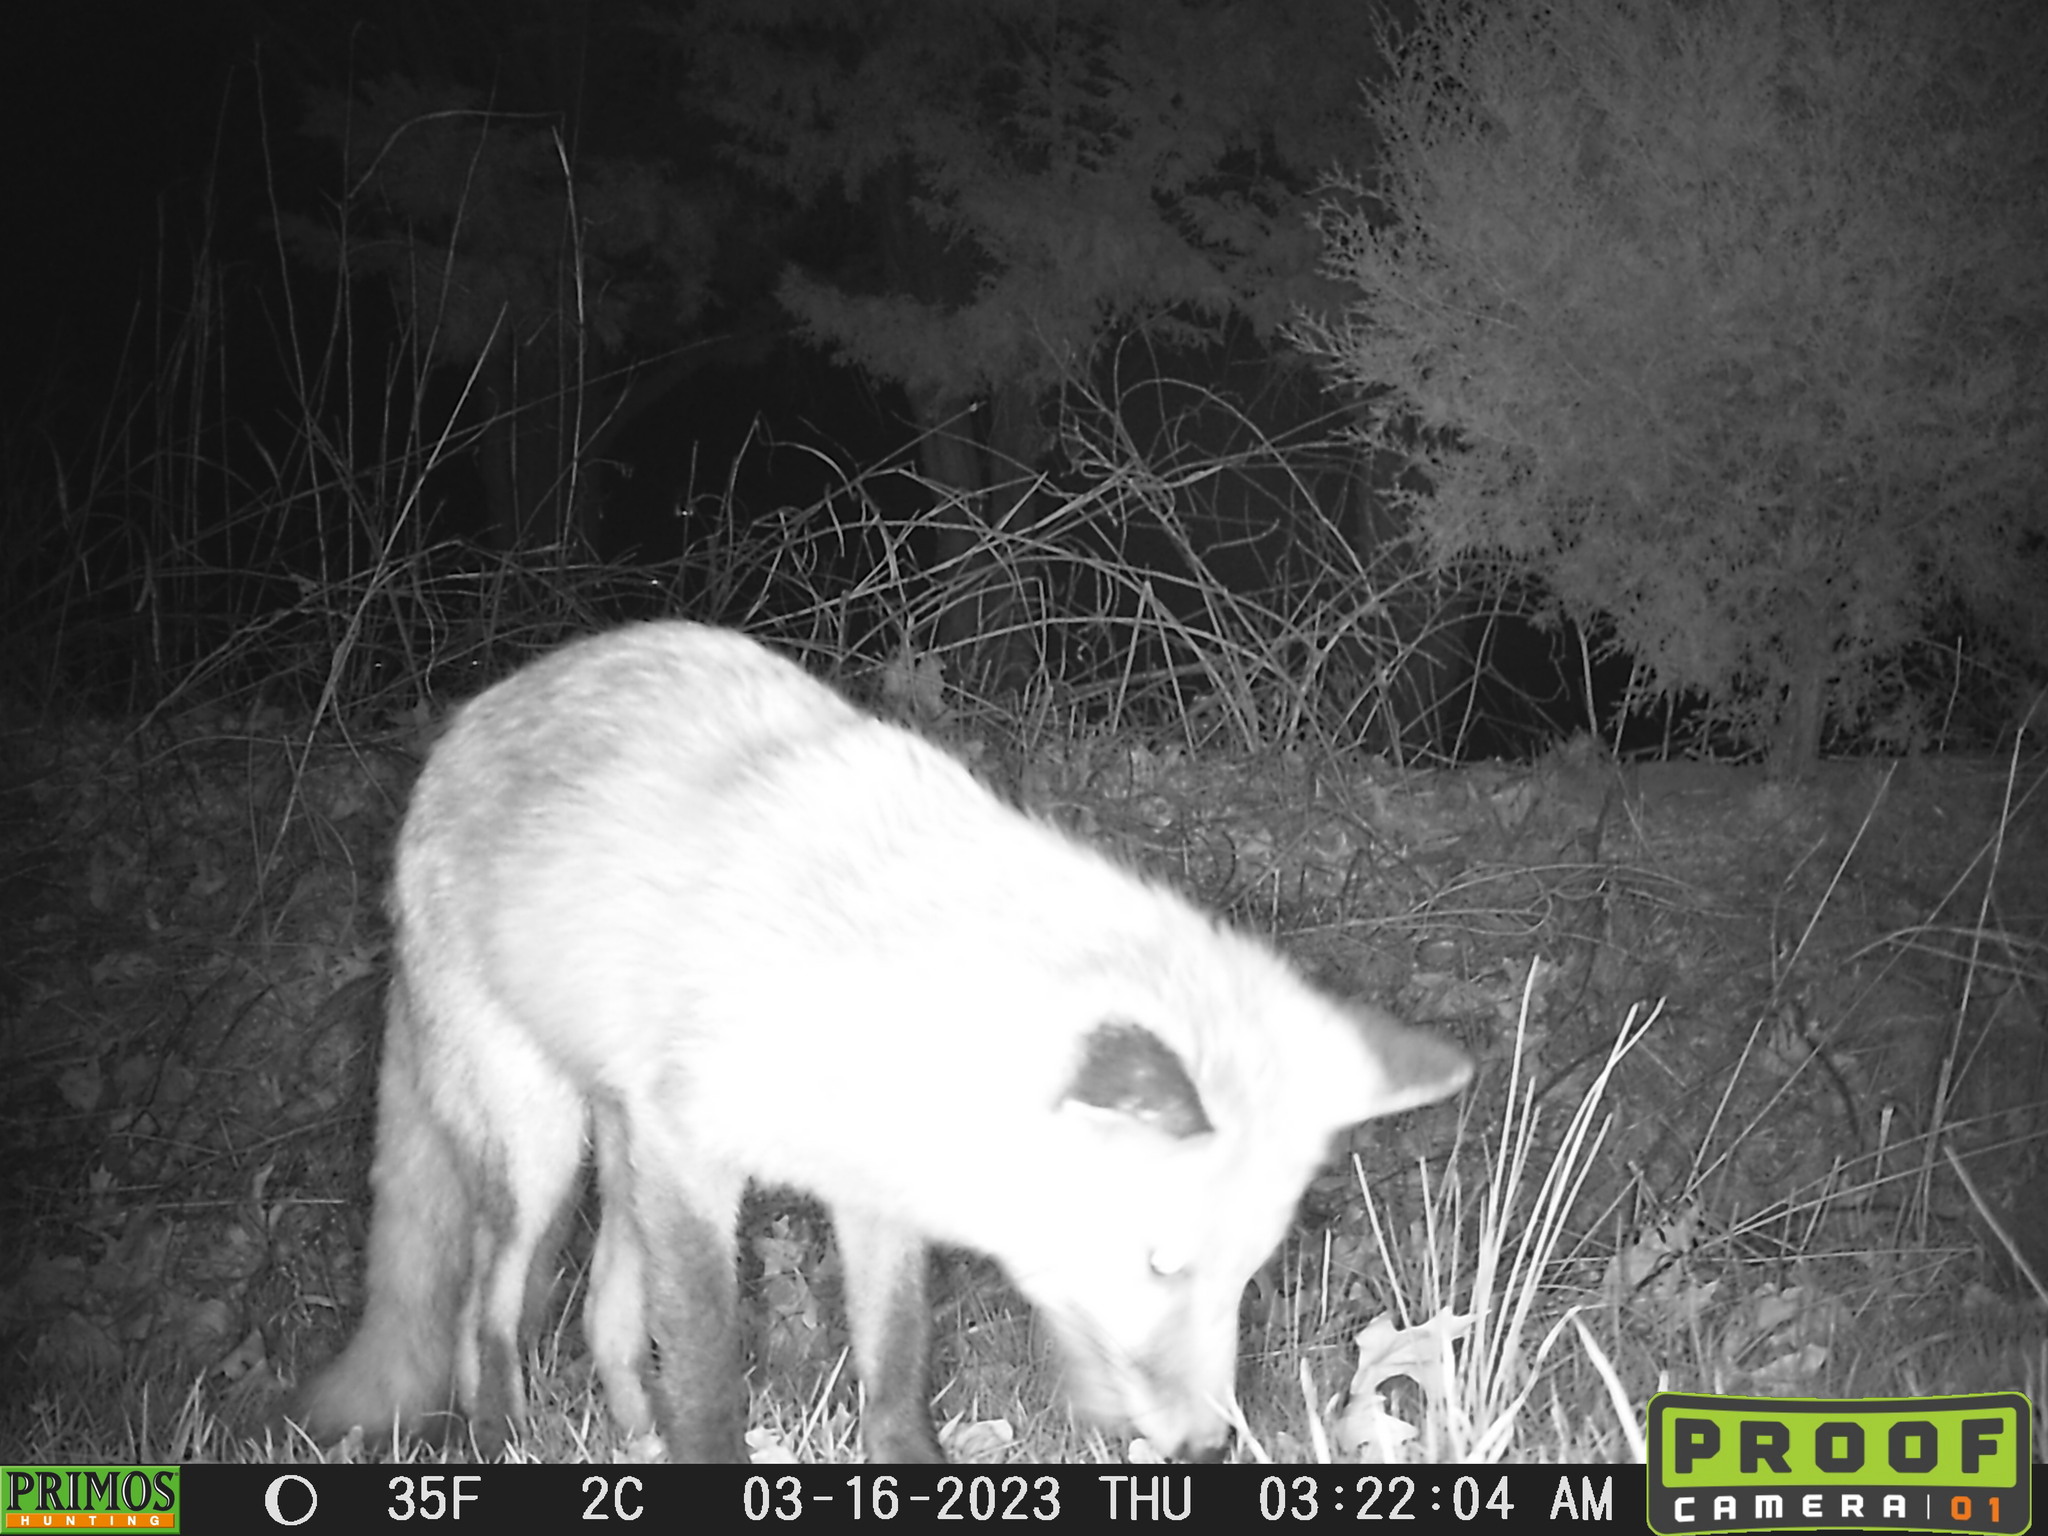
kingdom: Animalia
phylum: Chordata
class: Mammalia
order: Carnivora
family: Canidae
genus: Vulpes
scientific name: Vulpes vulpes
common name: Red fox
